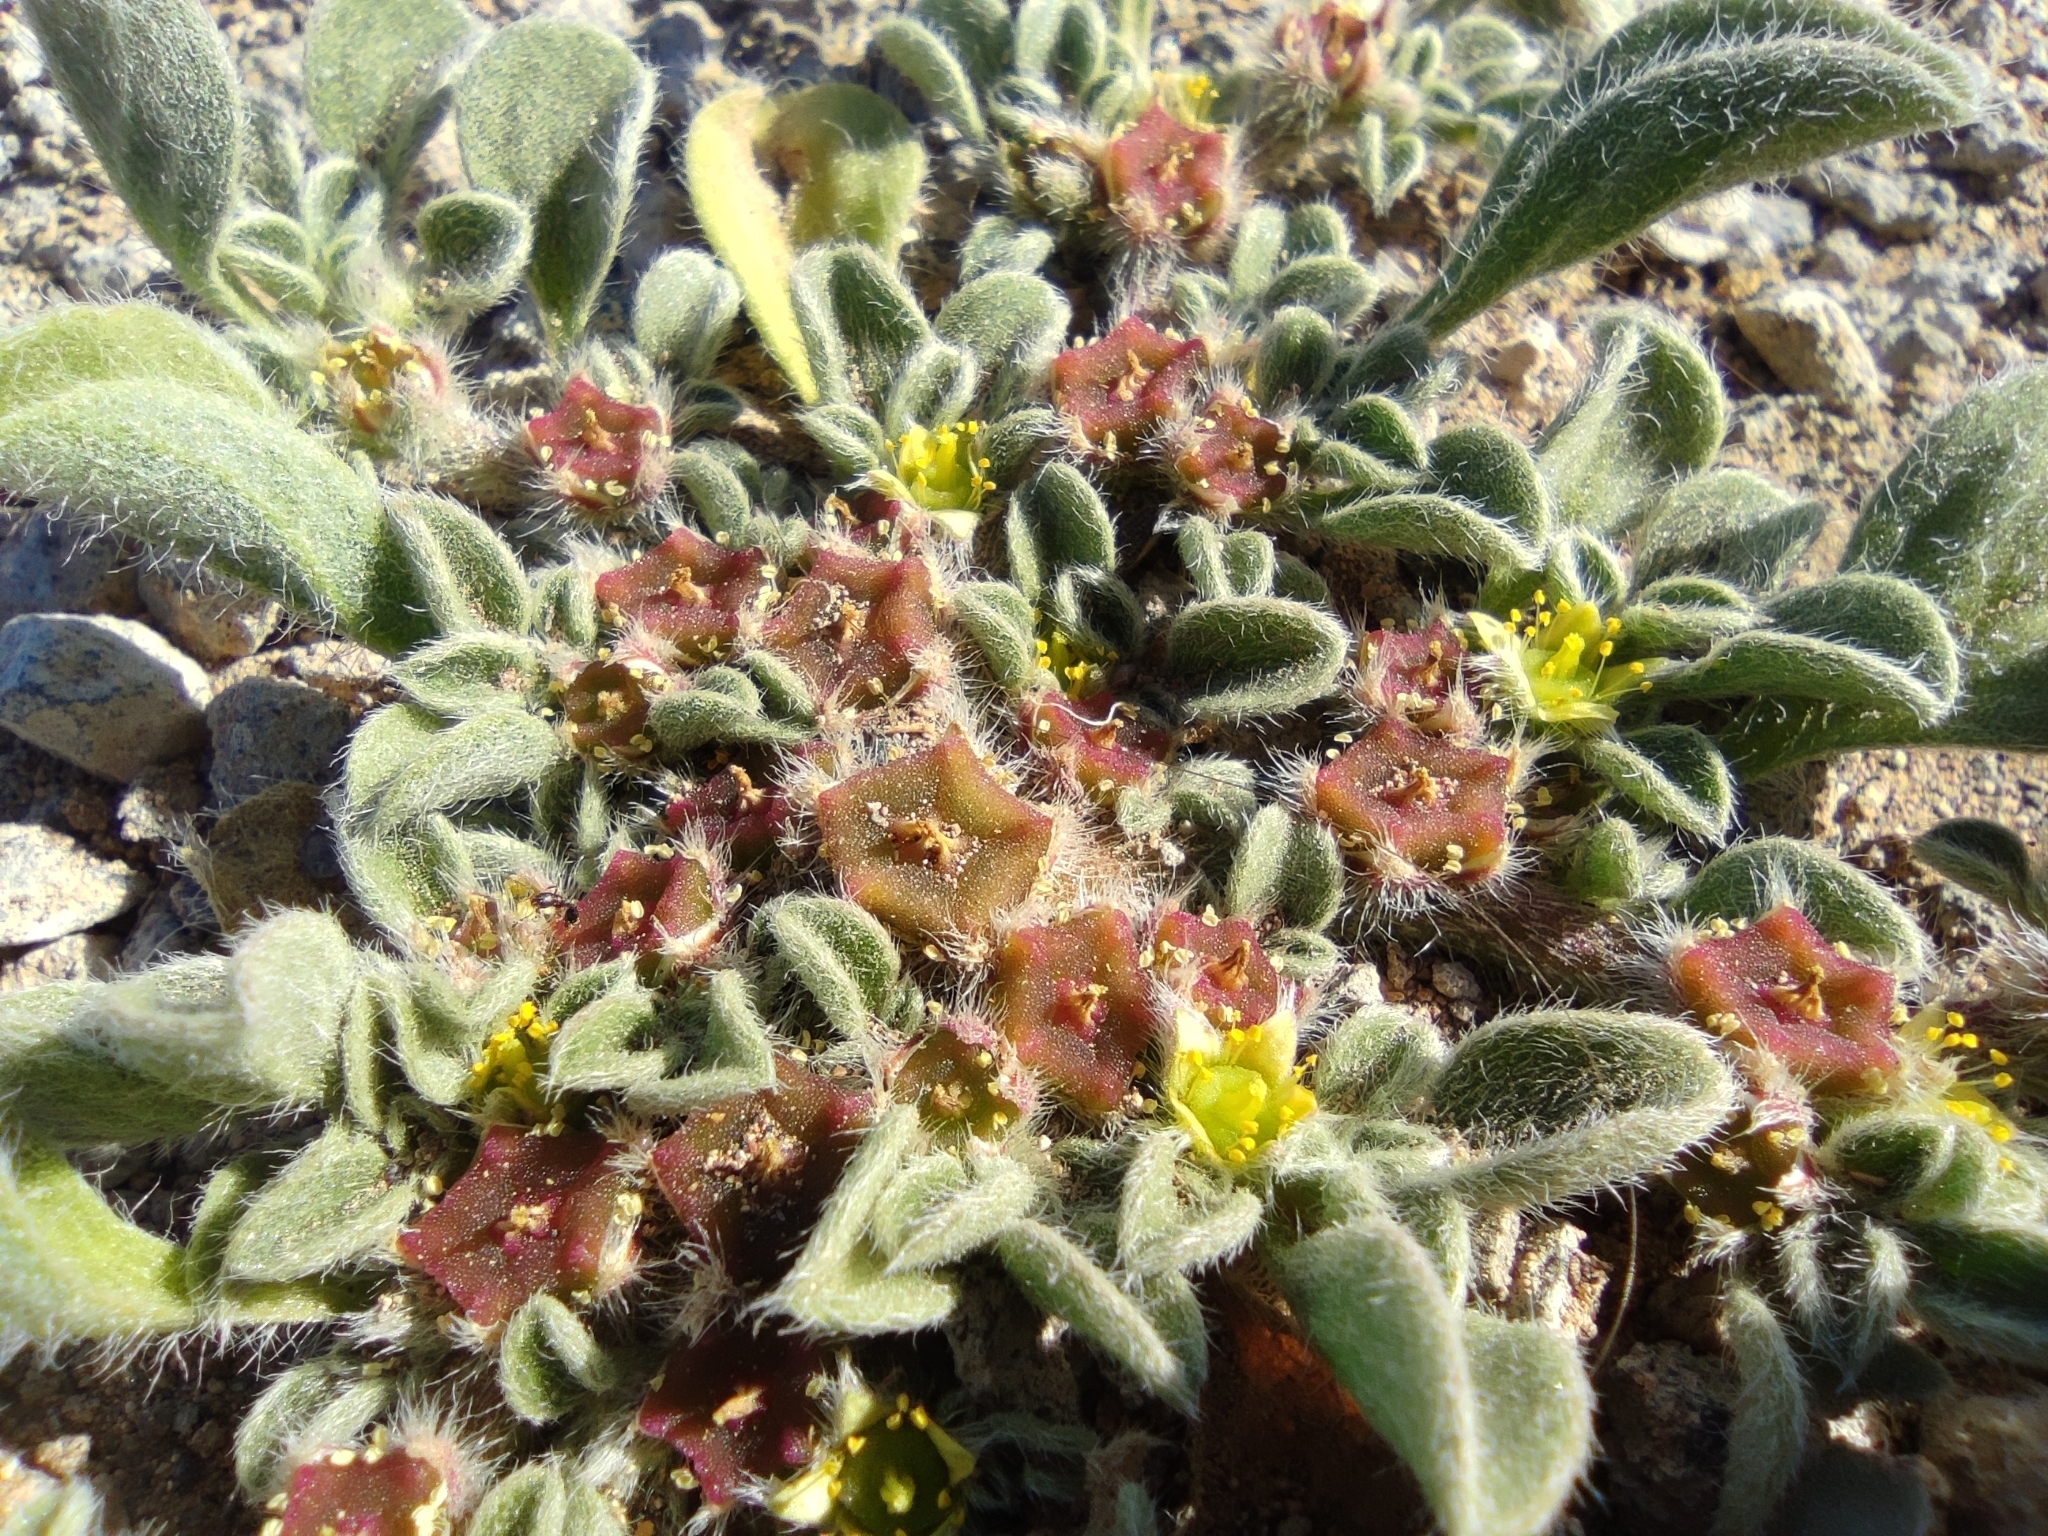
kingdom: Plantae
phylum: Tracheophyta
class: Magnoliopsida
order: Caryophyllales
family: Aizoaceae
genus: Aizoon
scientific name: Aizoon canariense
